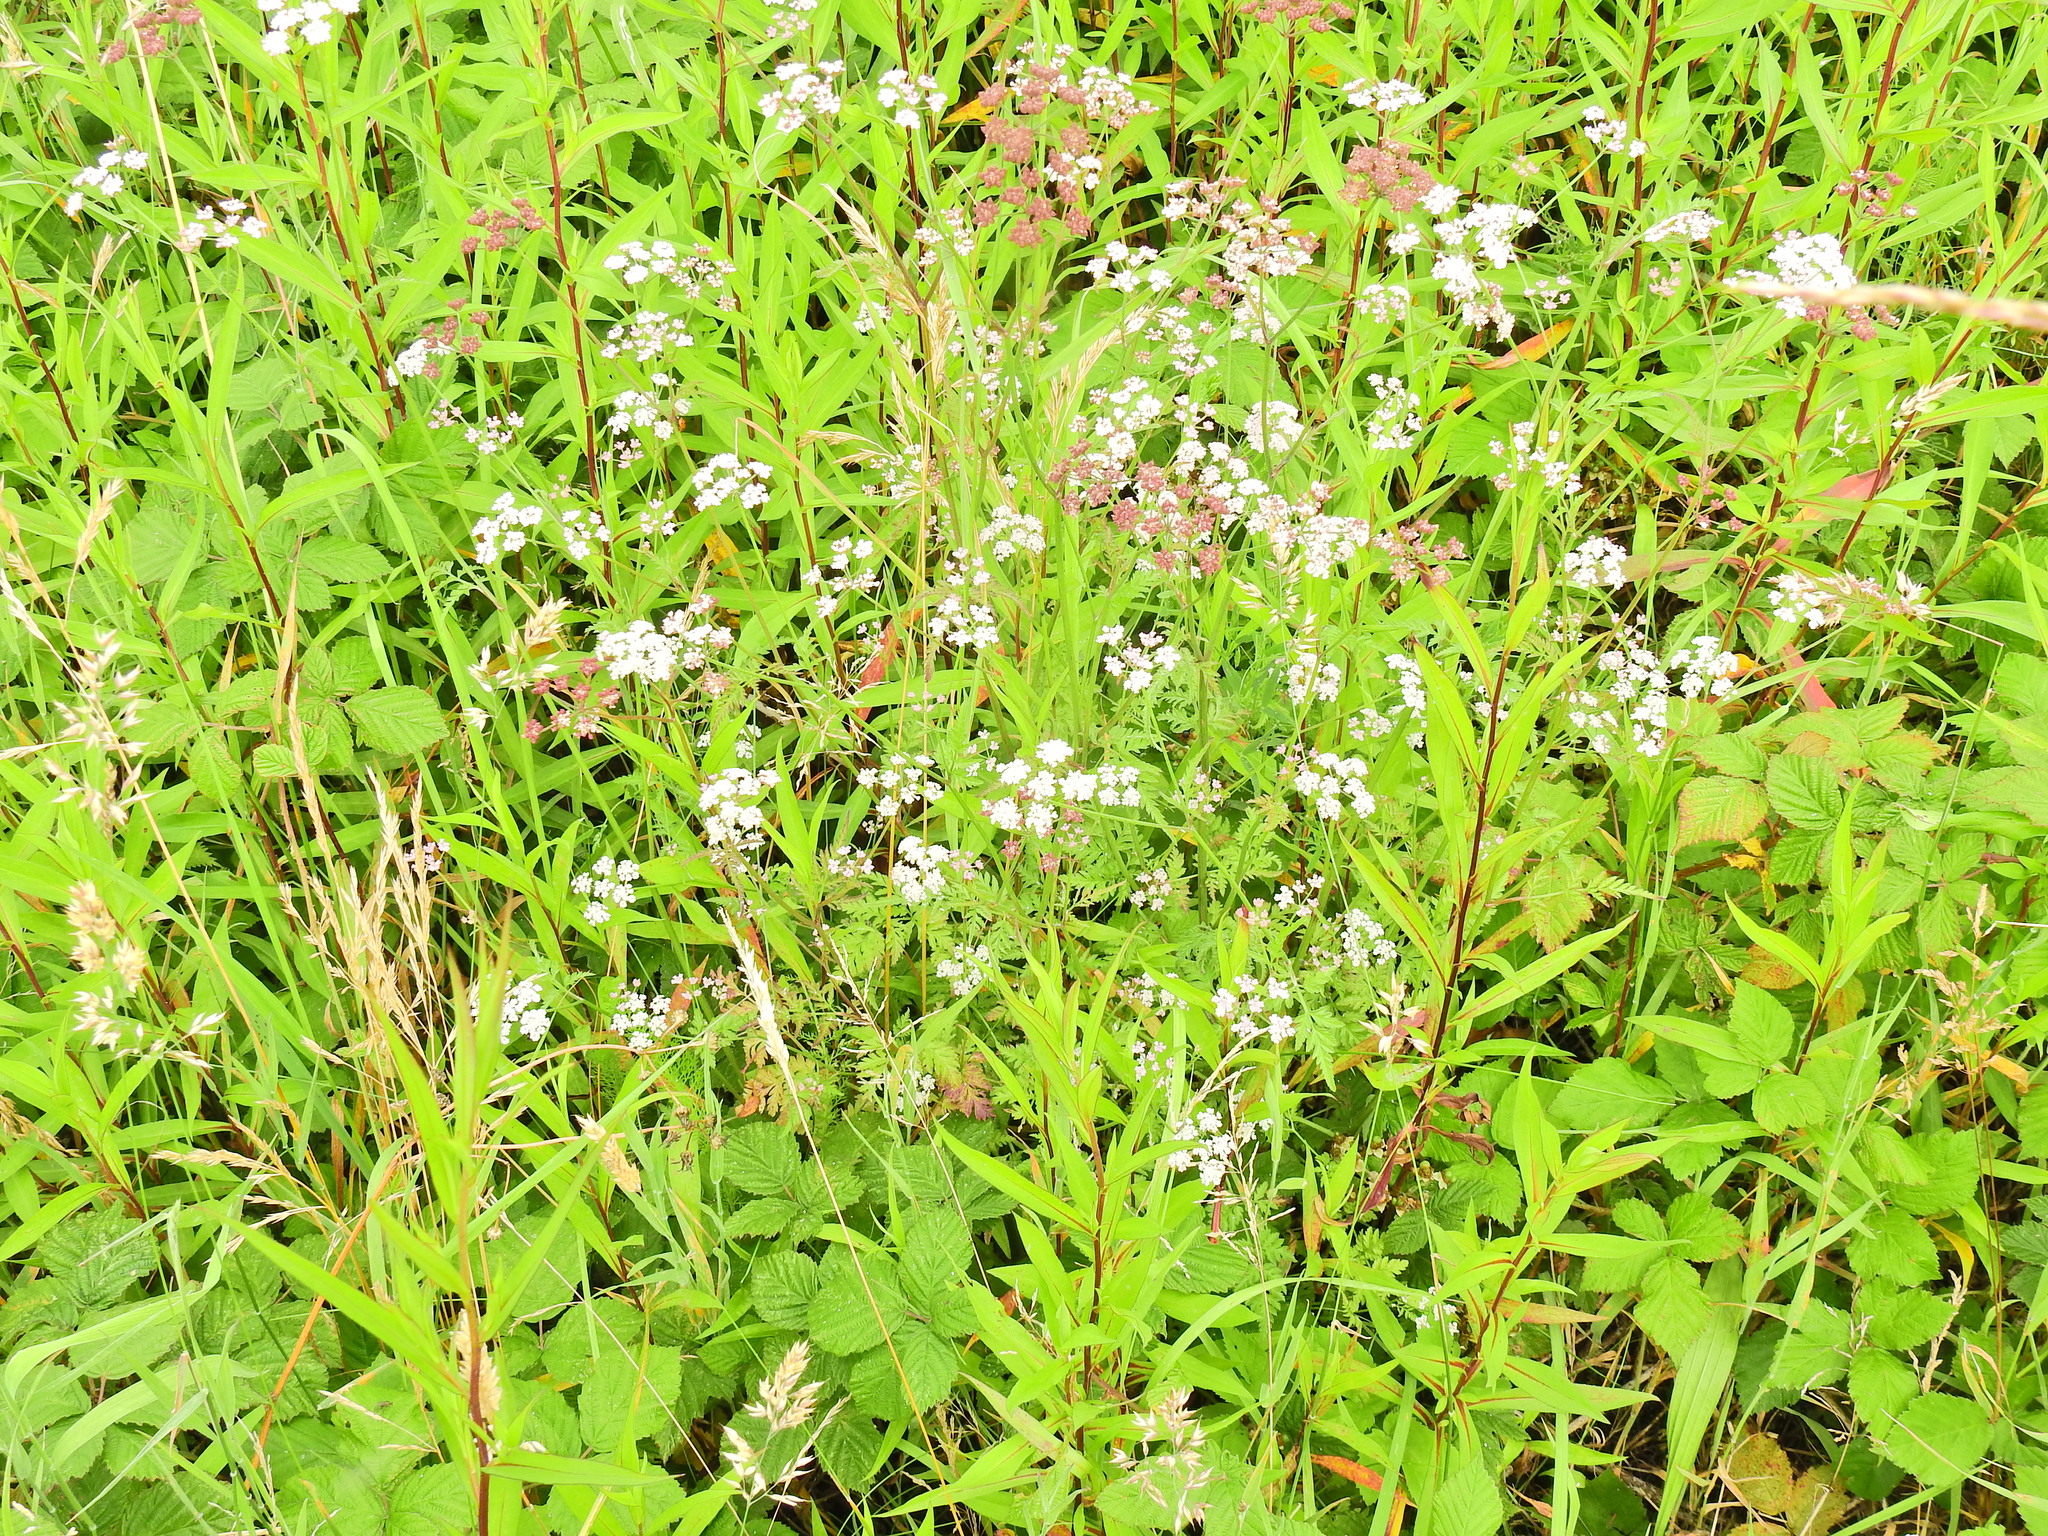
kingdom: Plantae
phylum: Tracheophyta
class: Magnoliopsida
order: Apiales
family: Apiaceae
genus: Torilis
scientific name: Torilis japonica
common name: Upright hedge-parsley
